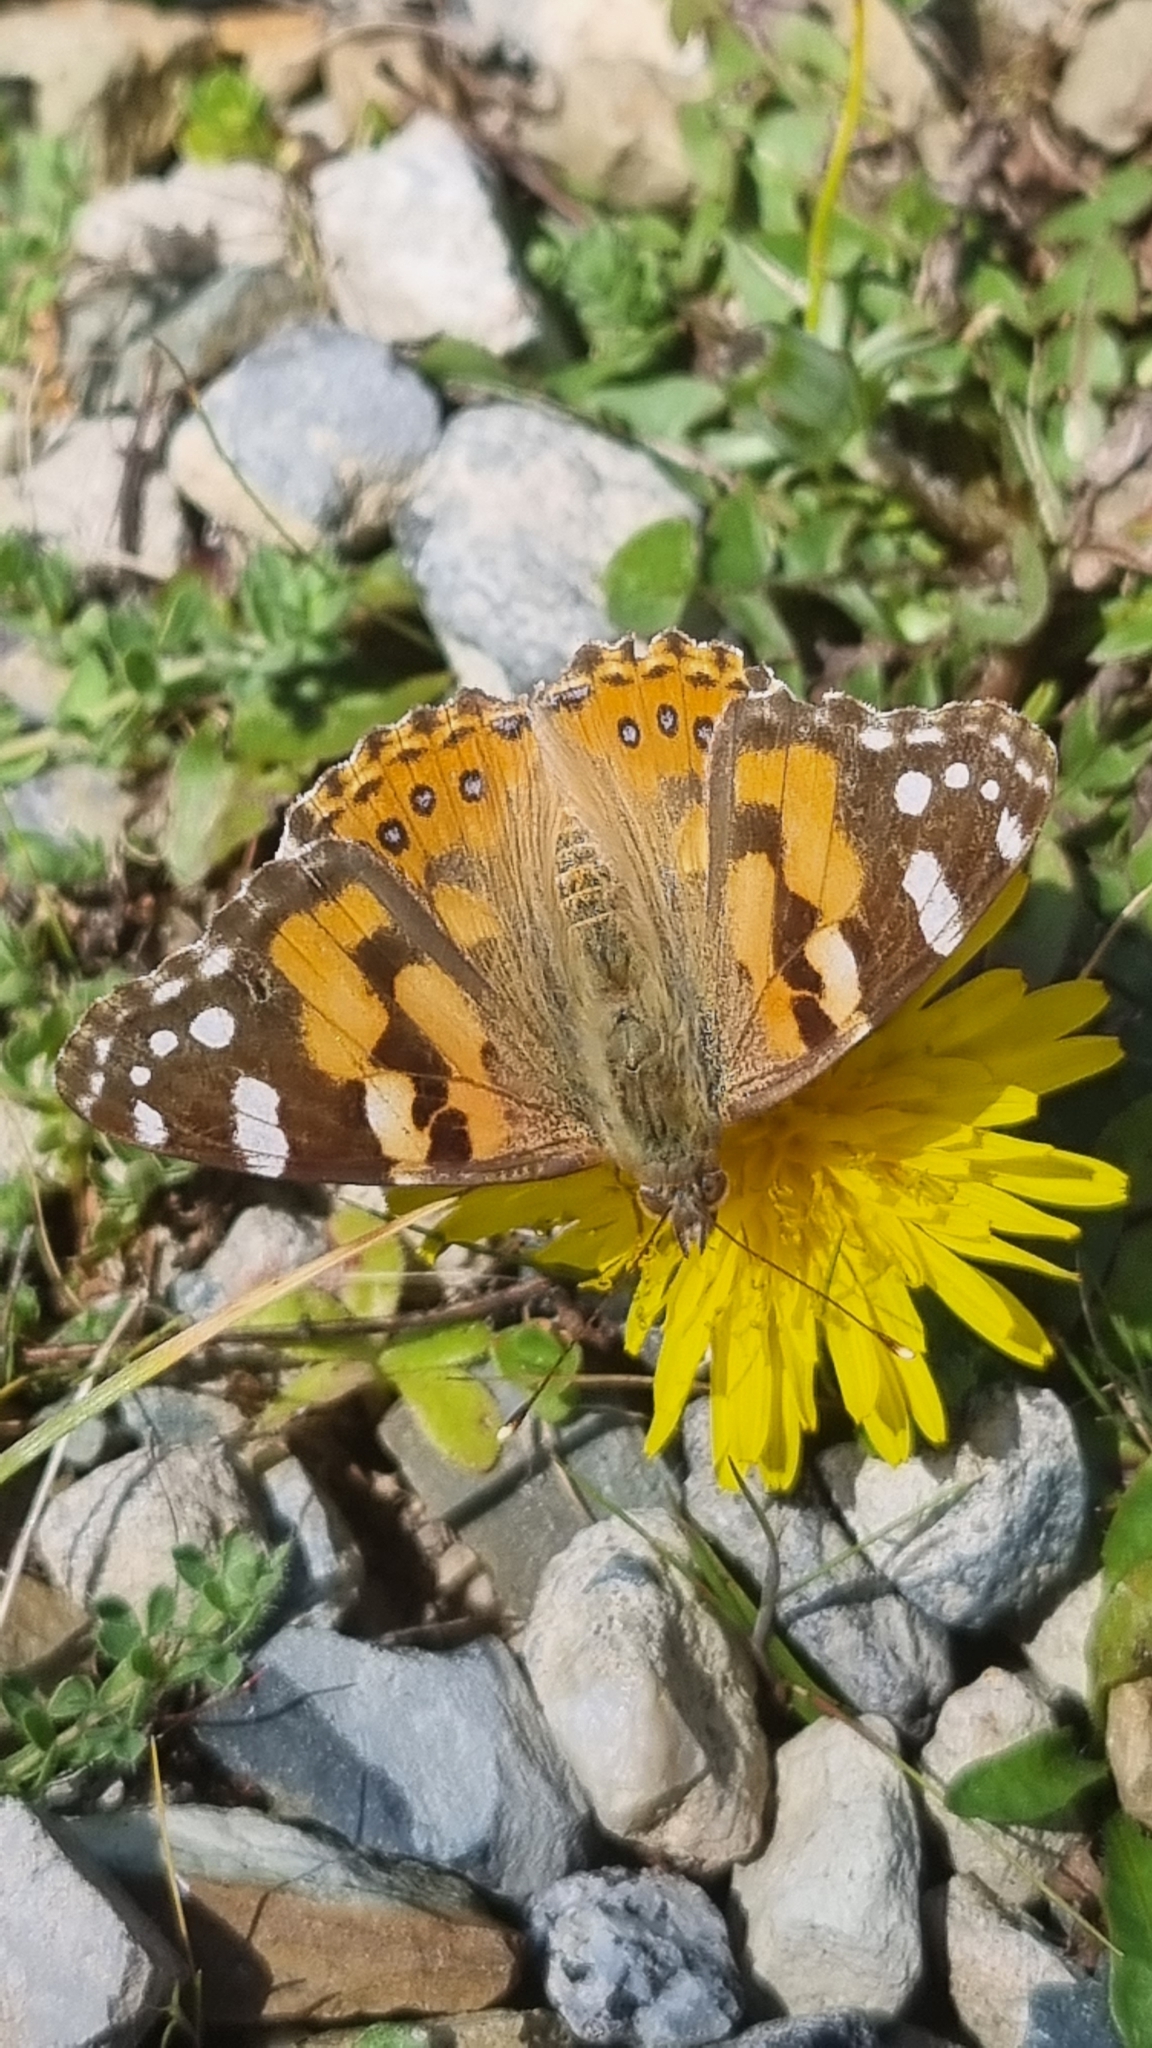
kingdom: Animalia
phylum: Arthropoda
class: Insecta
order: Lepidoptera
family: Nymphalidae
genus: Vanessa
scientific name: Vanessa kershawi
